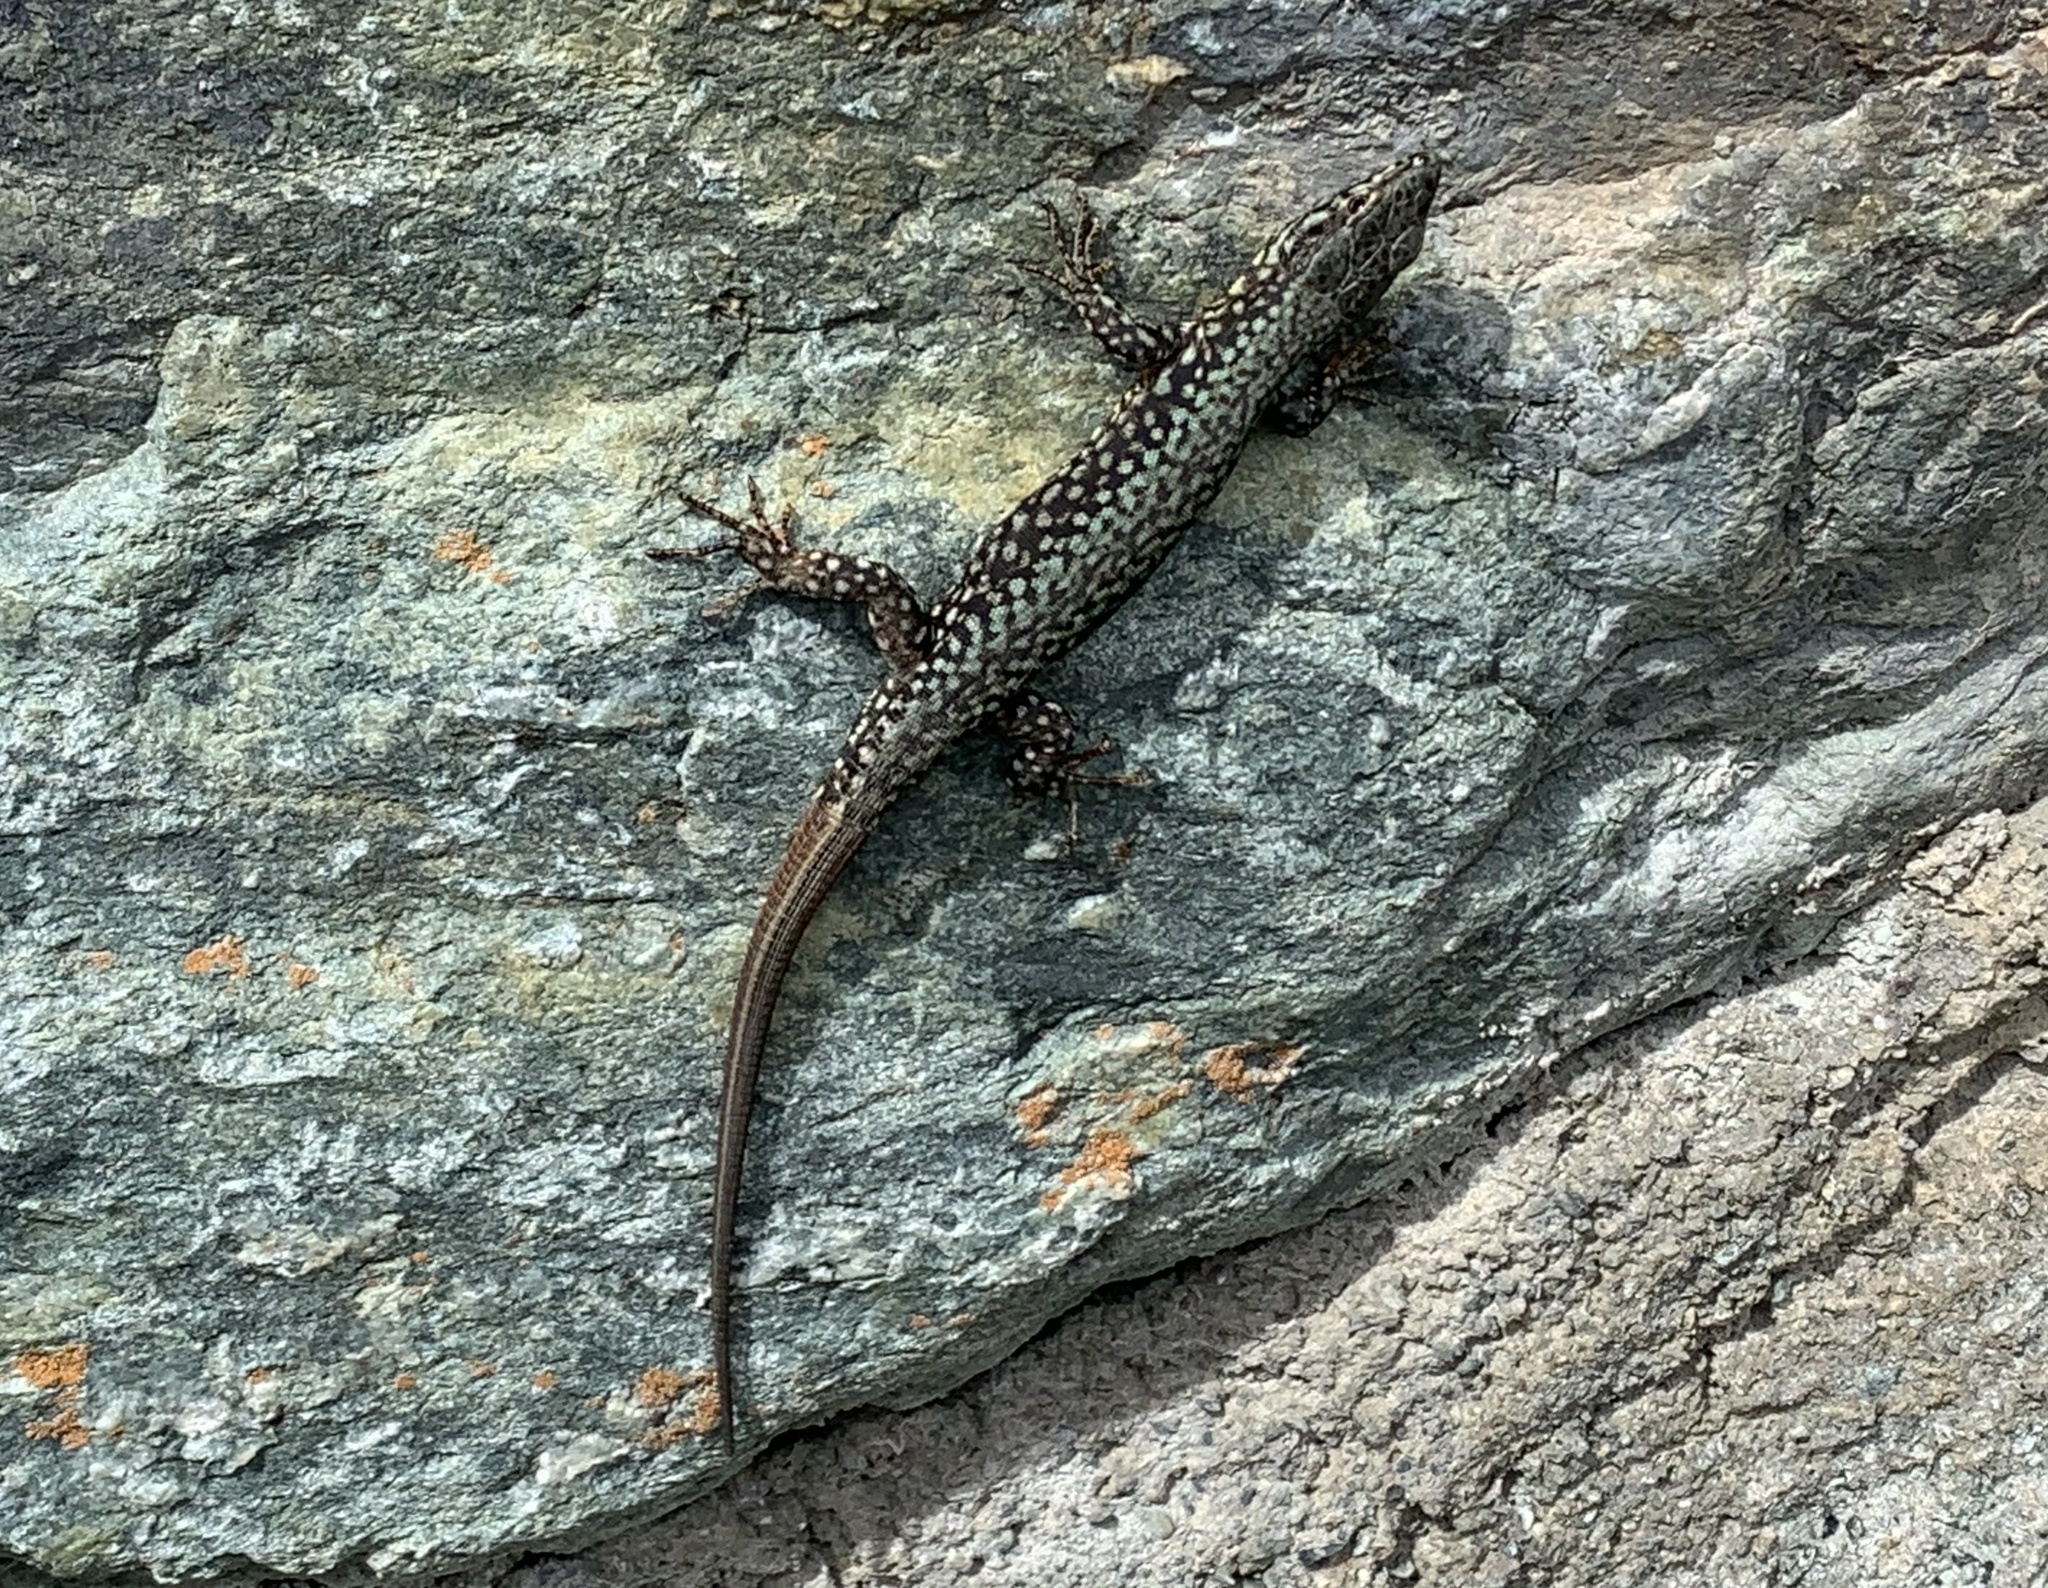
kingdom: Animalia
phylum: Chordata
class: Squamata
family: Lacertidae
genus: Podarcis
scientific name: Podarcis muralis
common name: Common wall lizard
